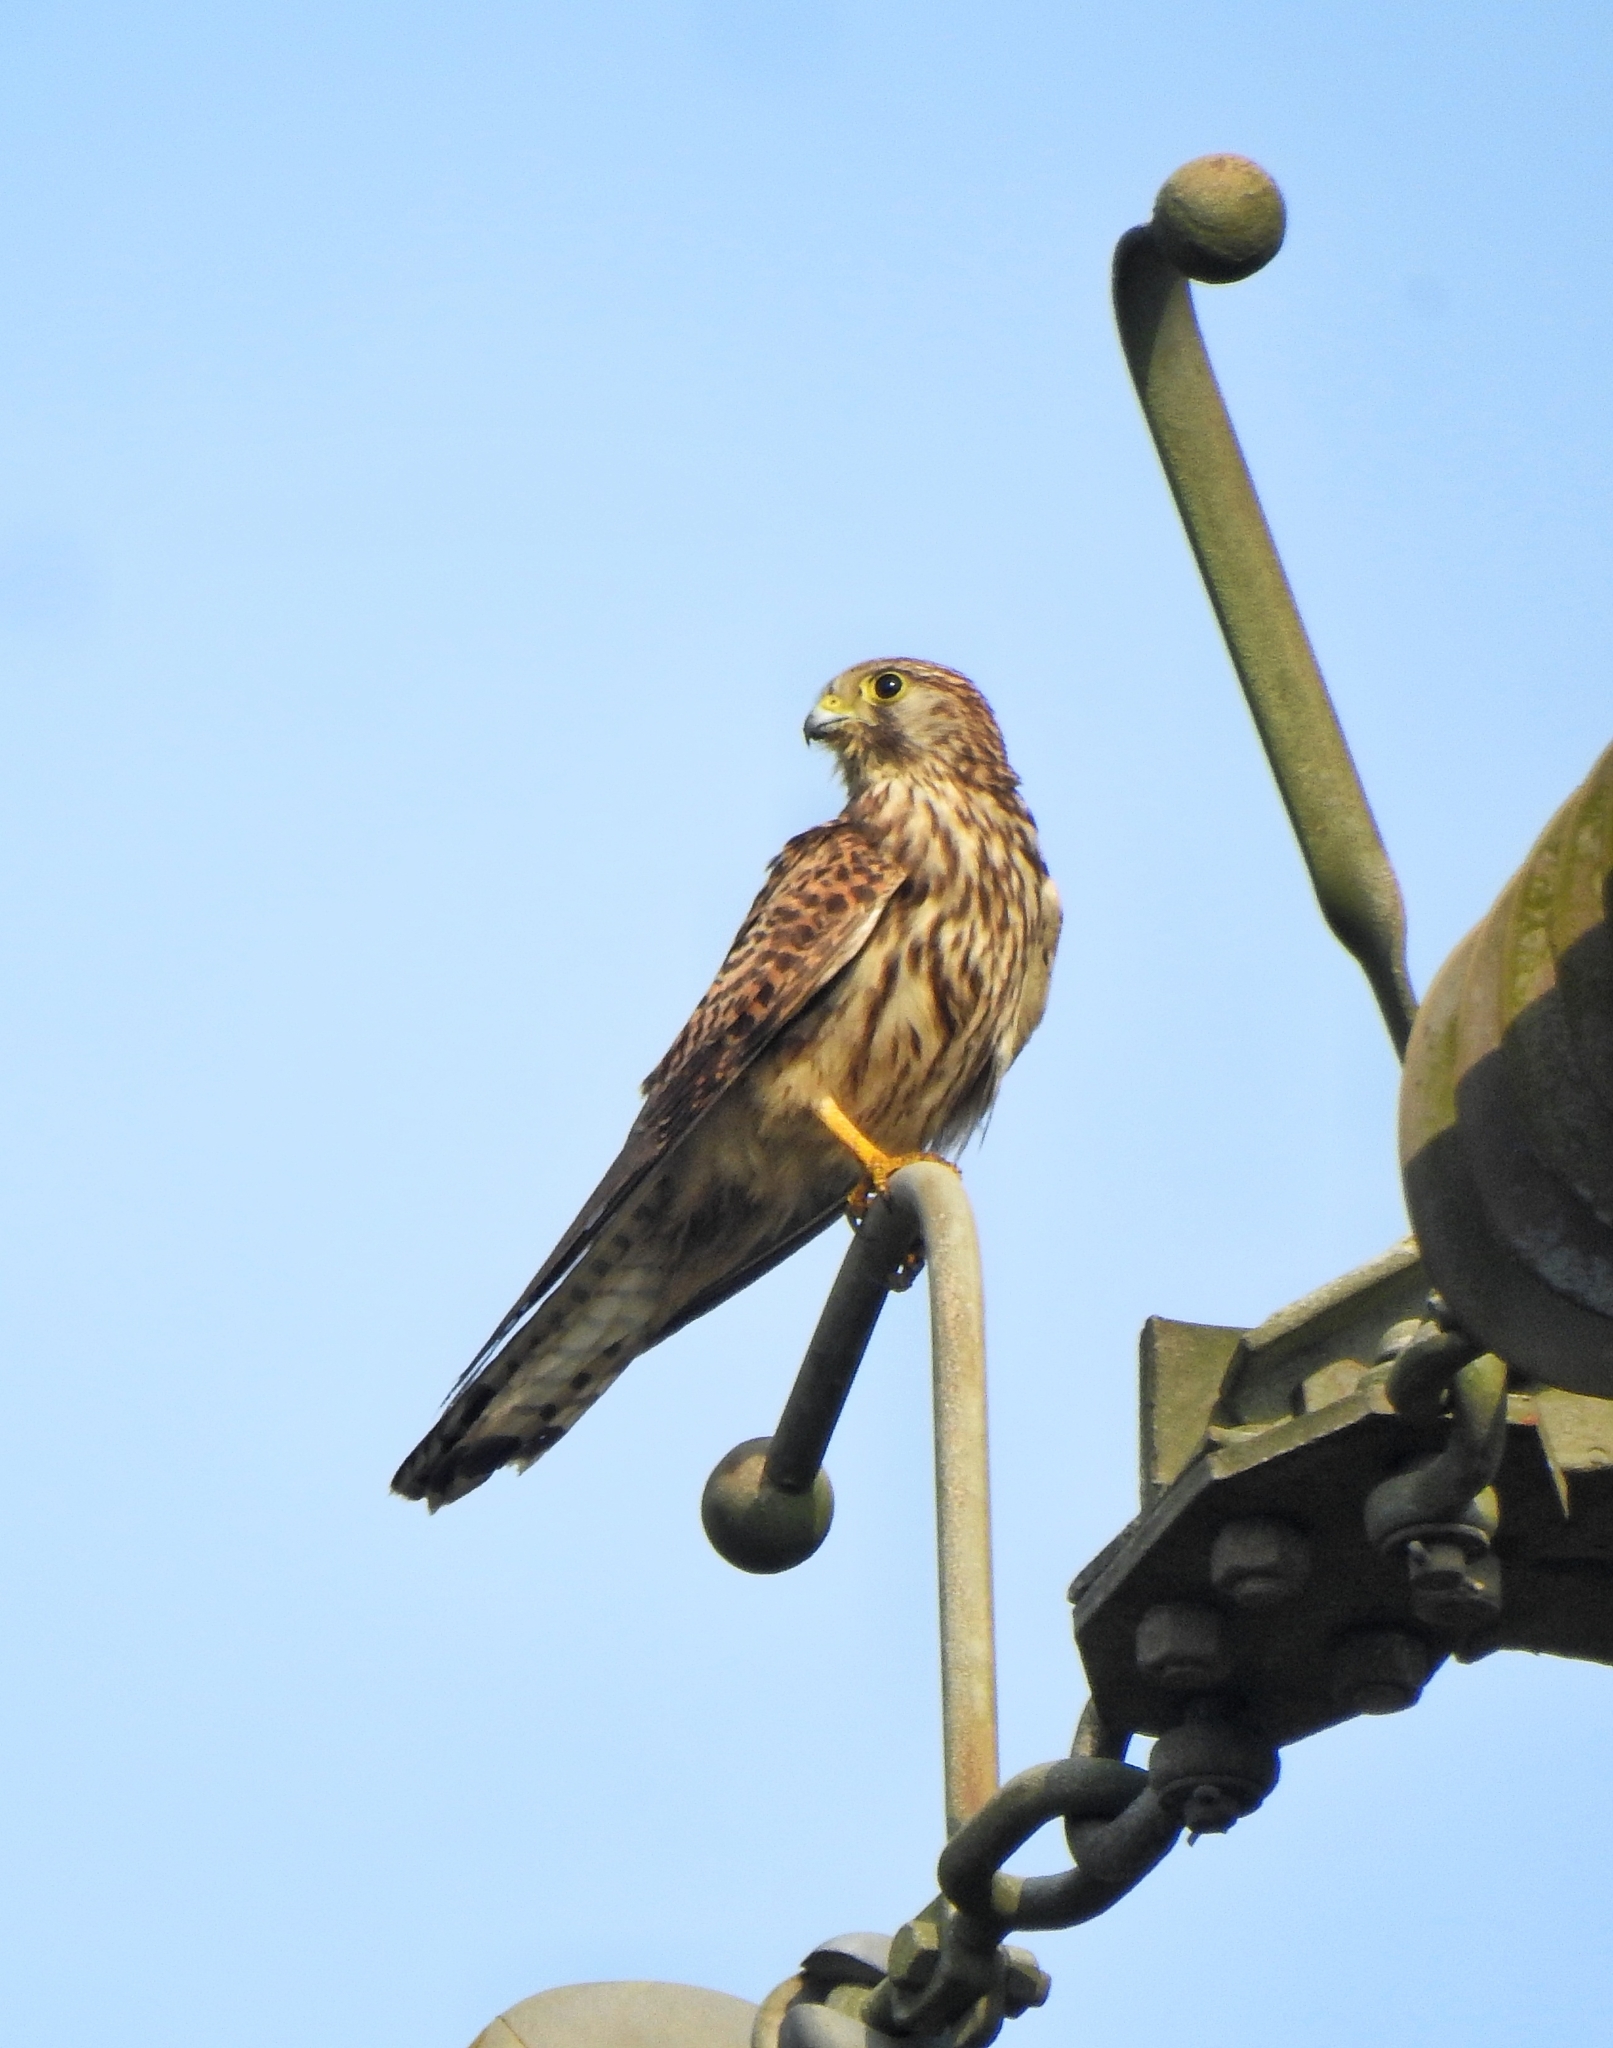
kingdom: Animalia
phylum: Chordata
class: Aves
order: Falconiformes
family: Falconidae
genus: Falco
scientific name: Falco tinnunculus
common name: Common kestrel
